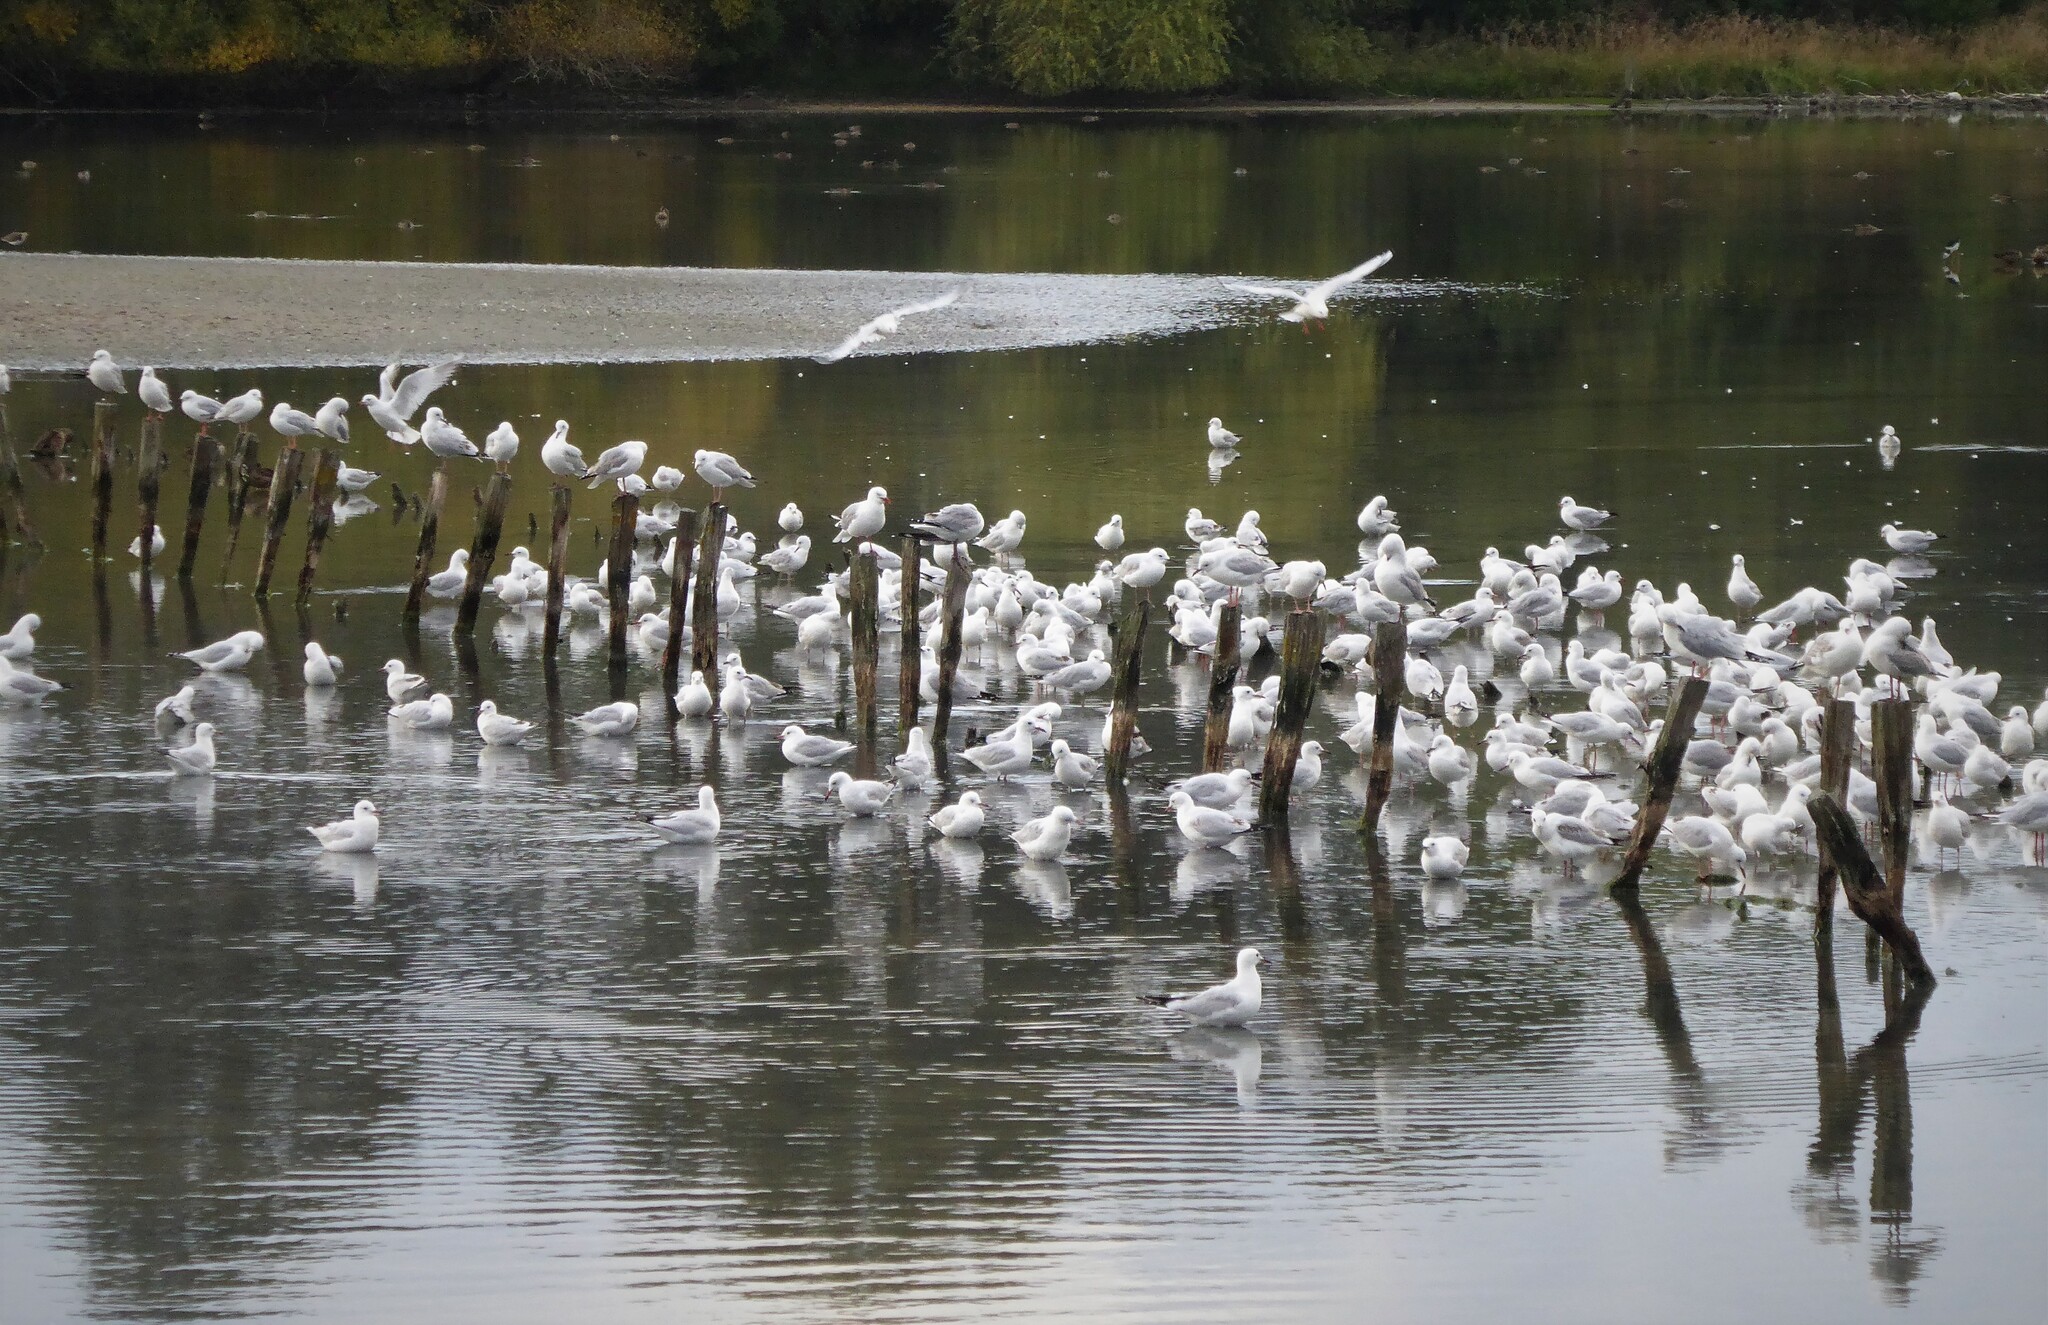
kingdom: Animalia
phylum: Chordata
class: Aves
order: Charadriiformes
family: Laridae
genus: Chroicocephalus
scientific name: Chroicocephalus bulleri
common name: Black-billed gull
